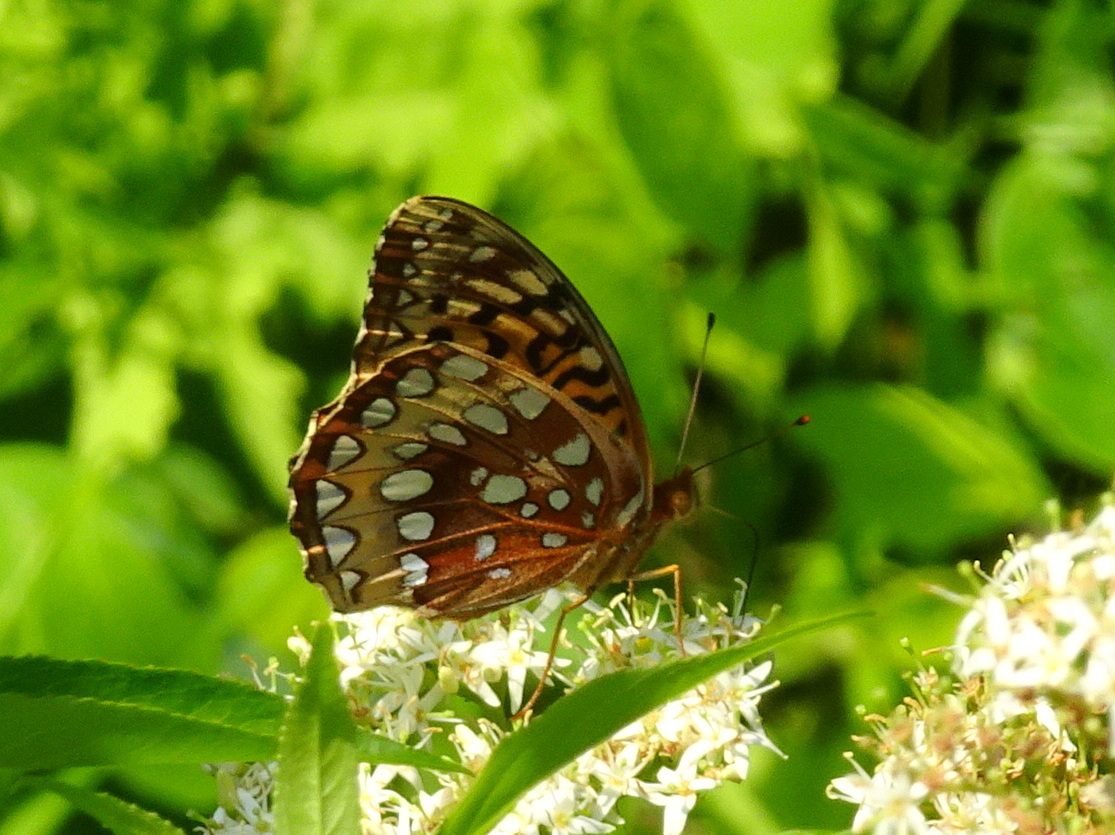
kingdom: Animalia
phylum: Arthropoda
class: Insecta
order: Lepidoptera
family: Nymphalidae
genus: Speyeria
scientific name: Speyeria cybele
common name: Great spangled fritillary
